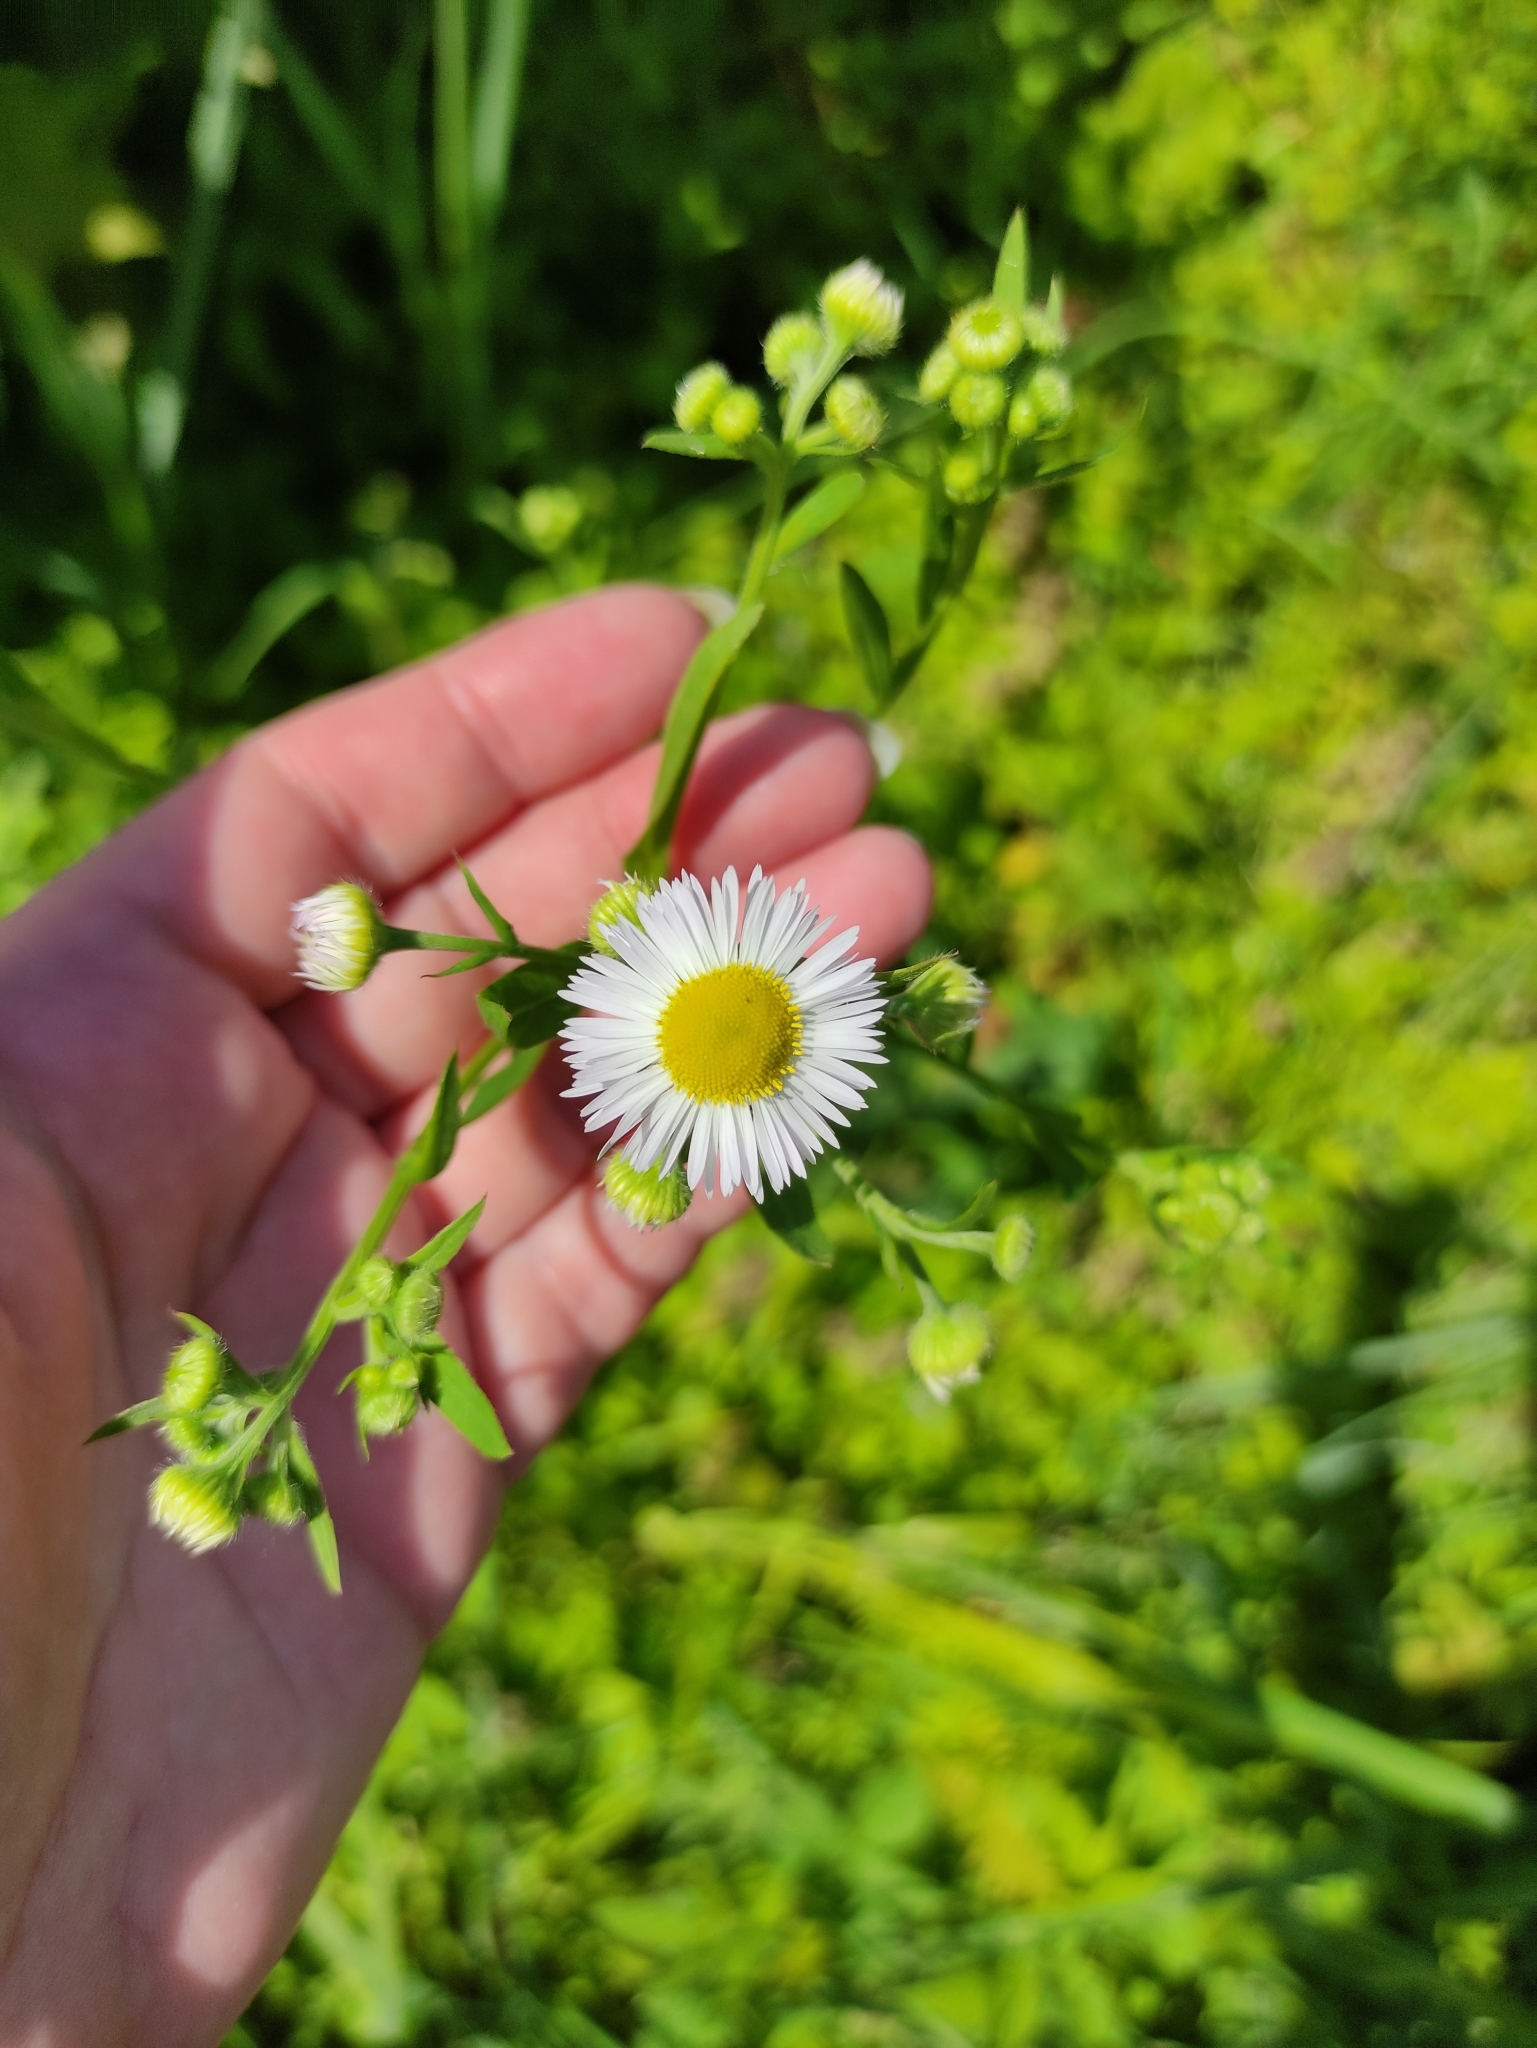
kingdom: Plantae
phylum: Tracheophyta
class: Magnoliopsida
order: Asterales
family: Asteraceae
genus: Erigeron
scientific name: Erigeron annuus
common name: Tall fleabane
